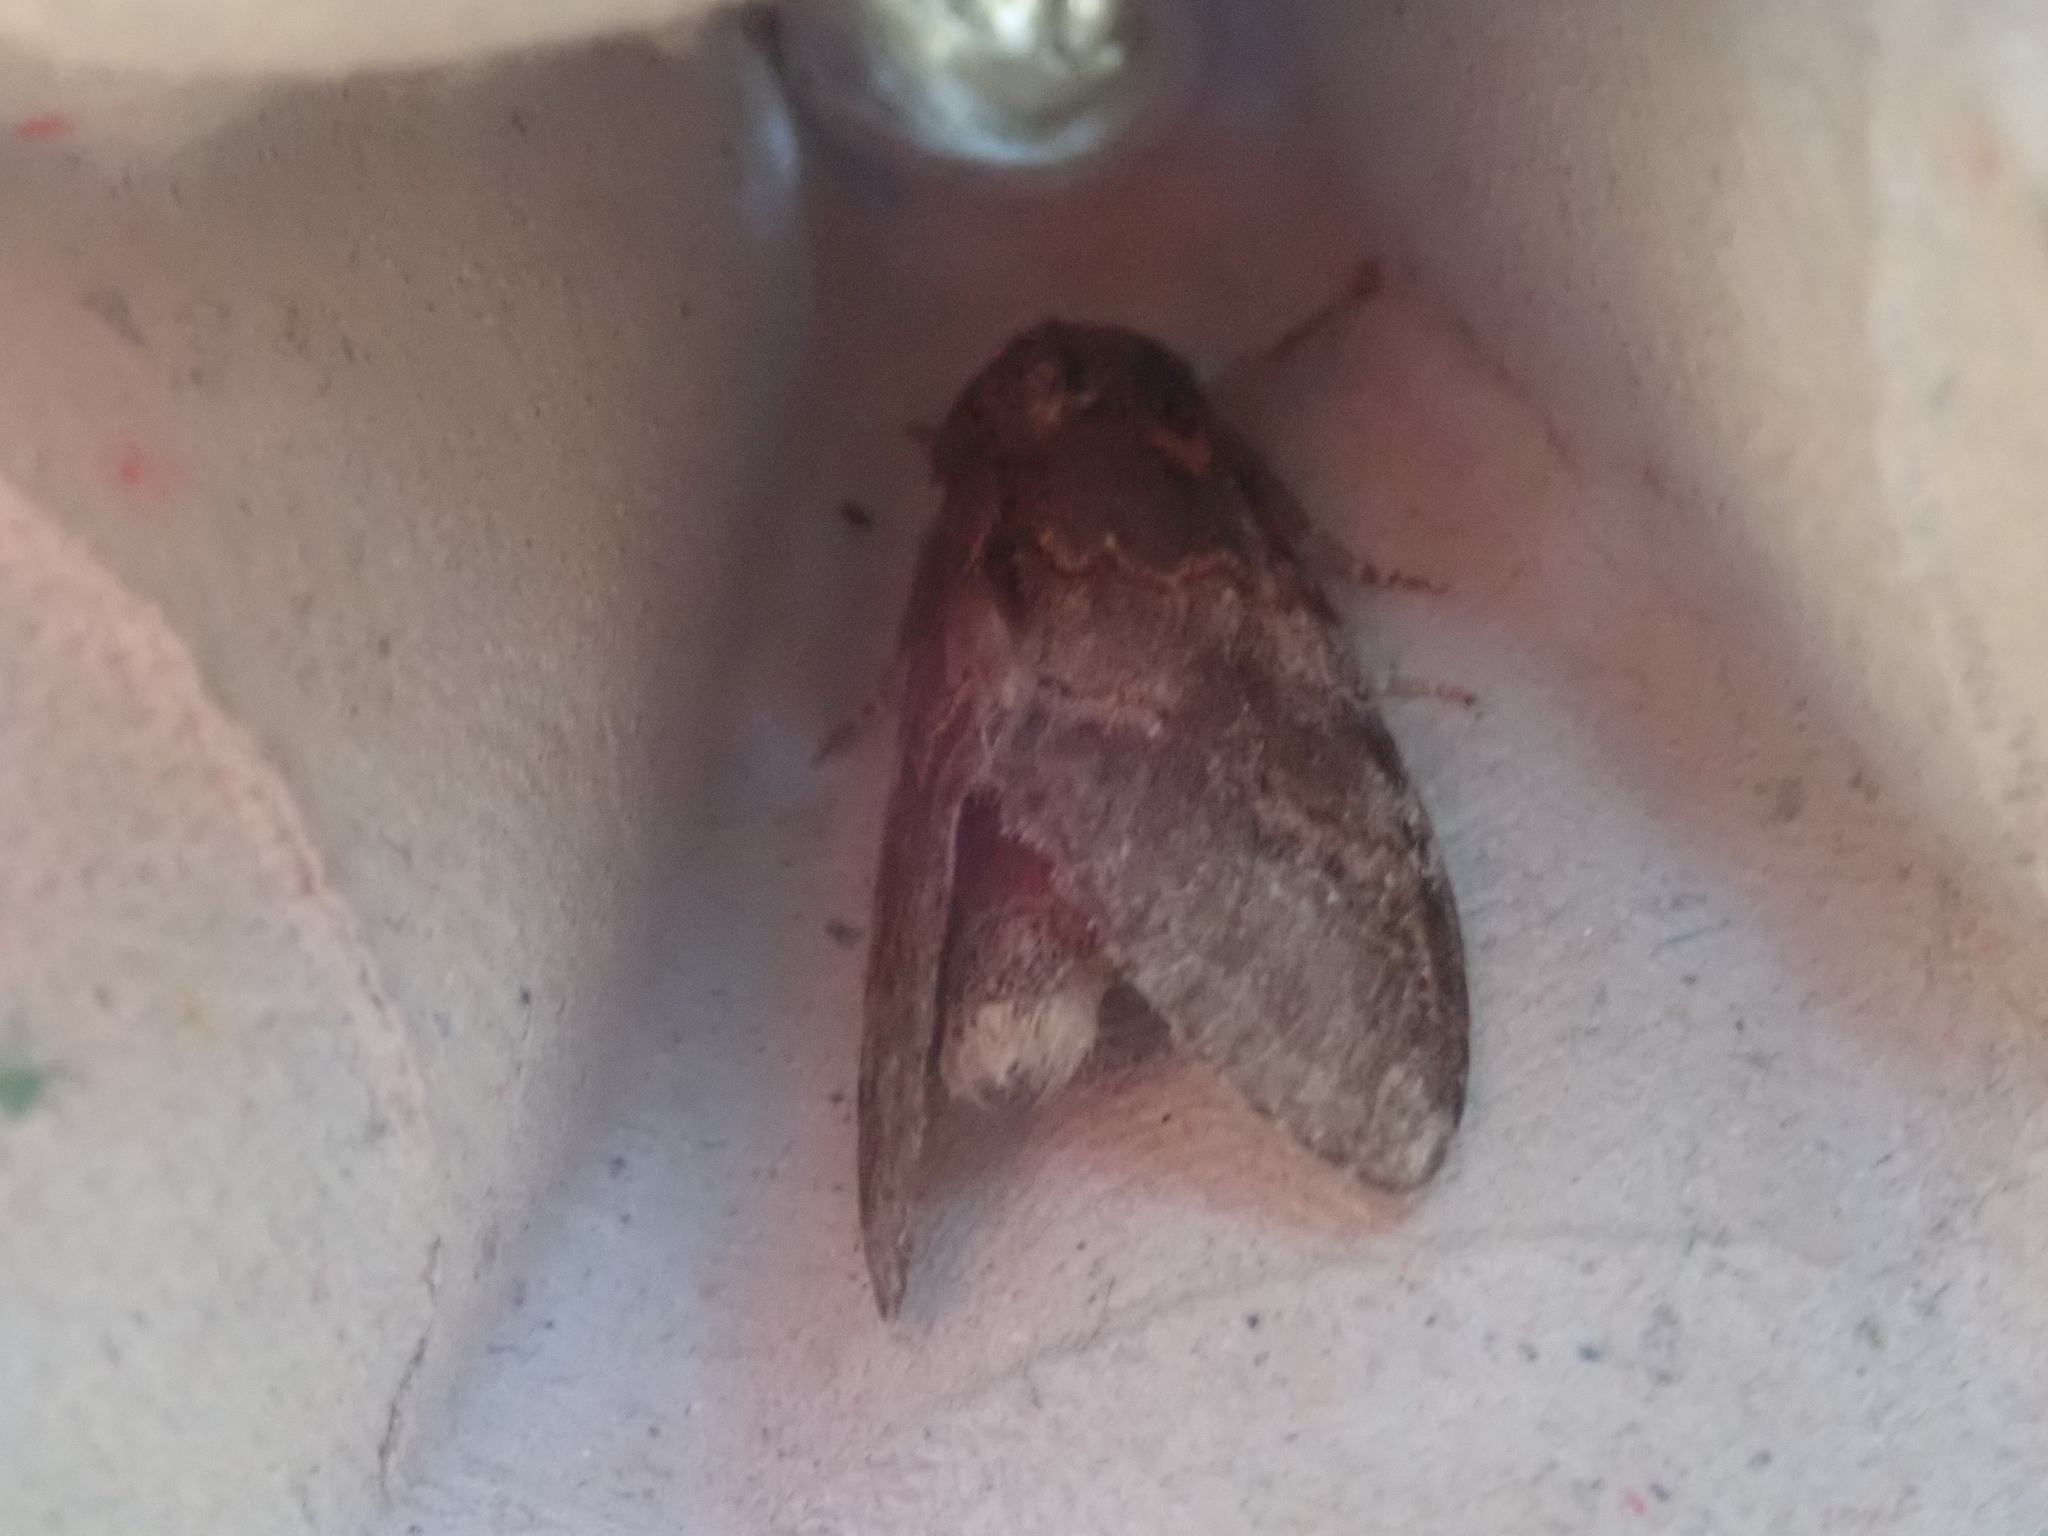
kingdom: Animalia
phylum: Arthropoda
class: Insecta
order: Lepidoptera
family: Notodontidae
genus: Peridea
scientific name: Peridea angulosa
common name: Angulose prominent
